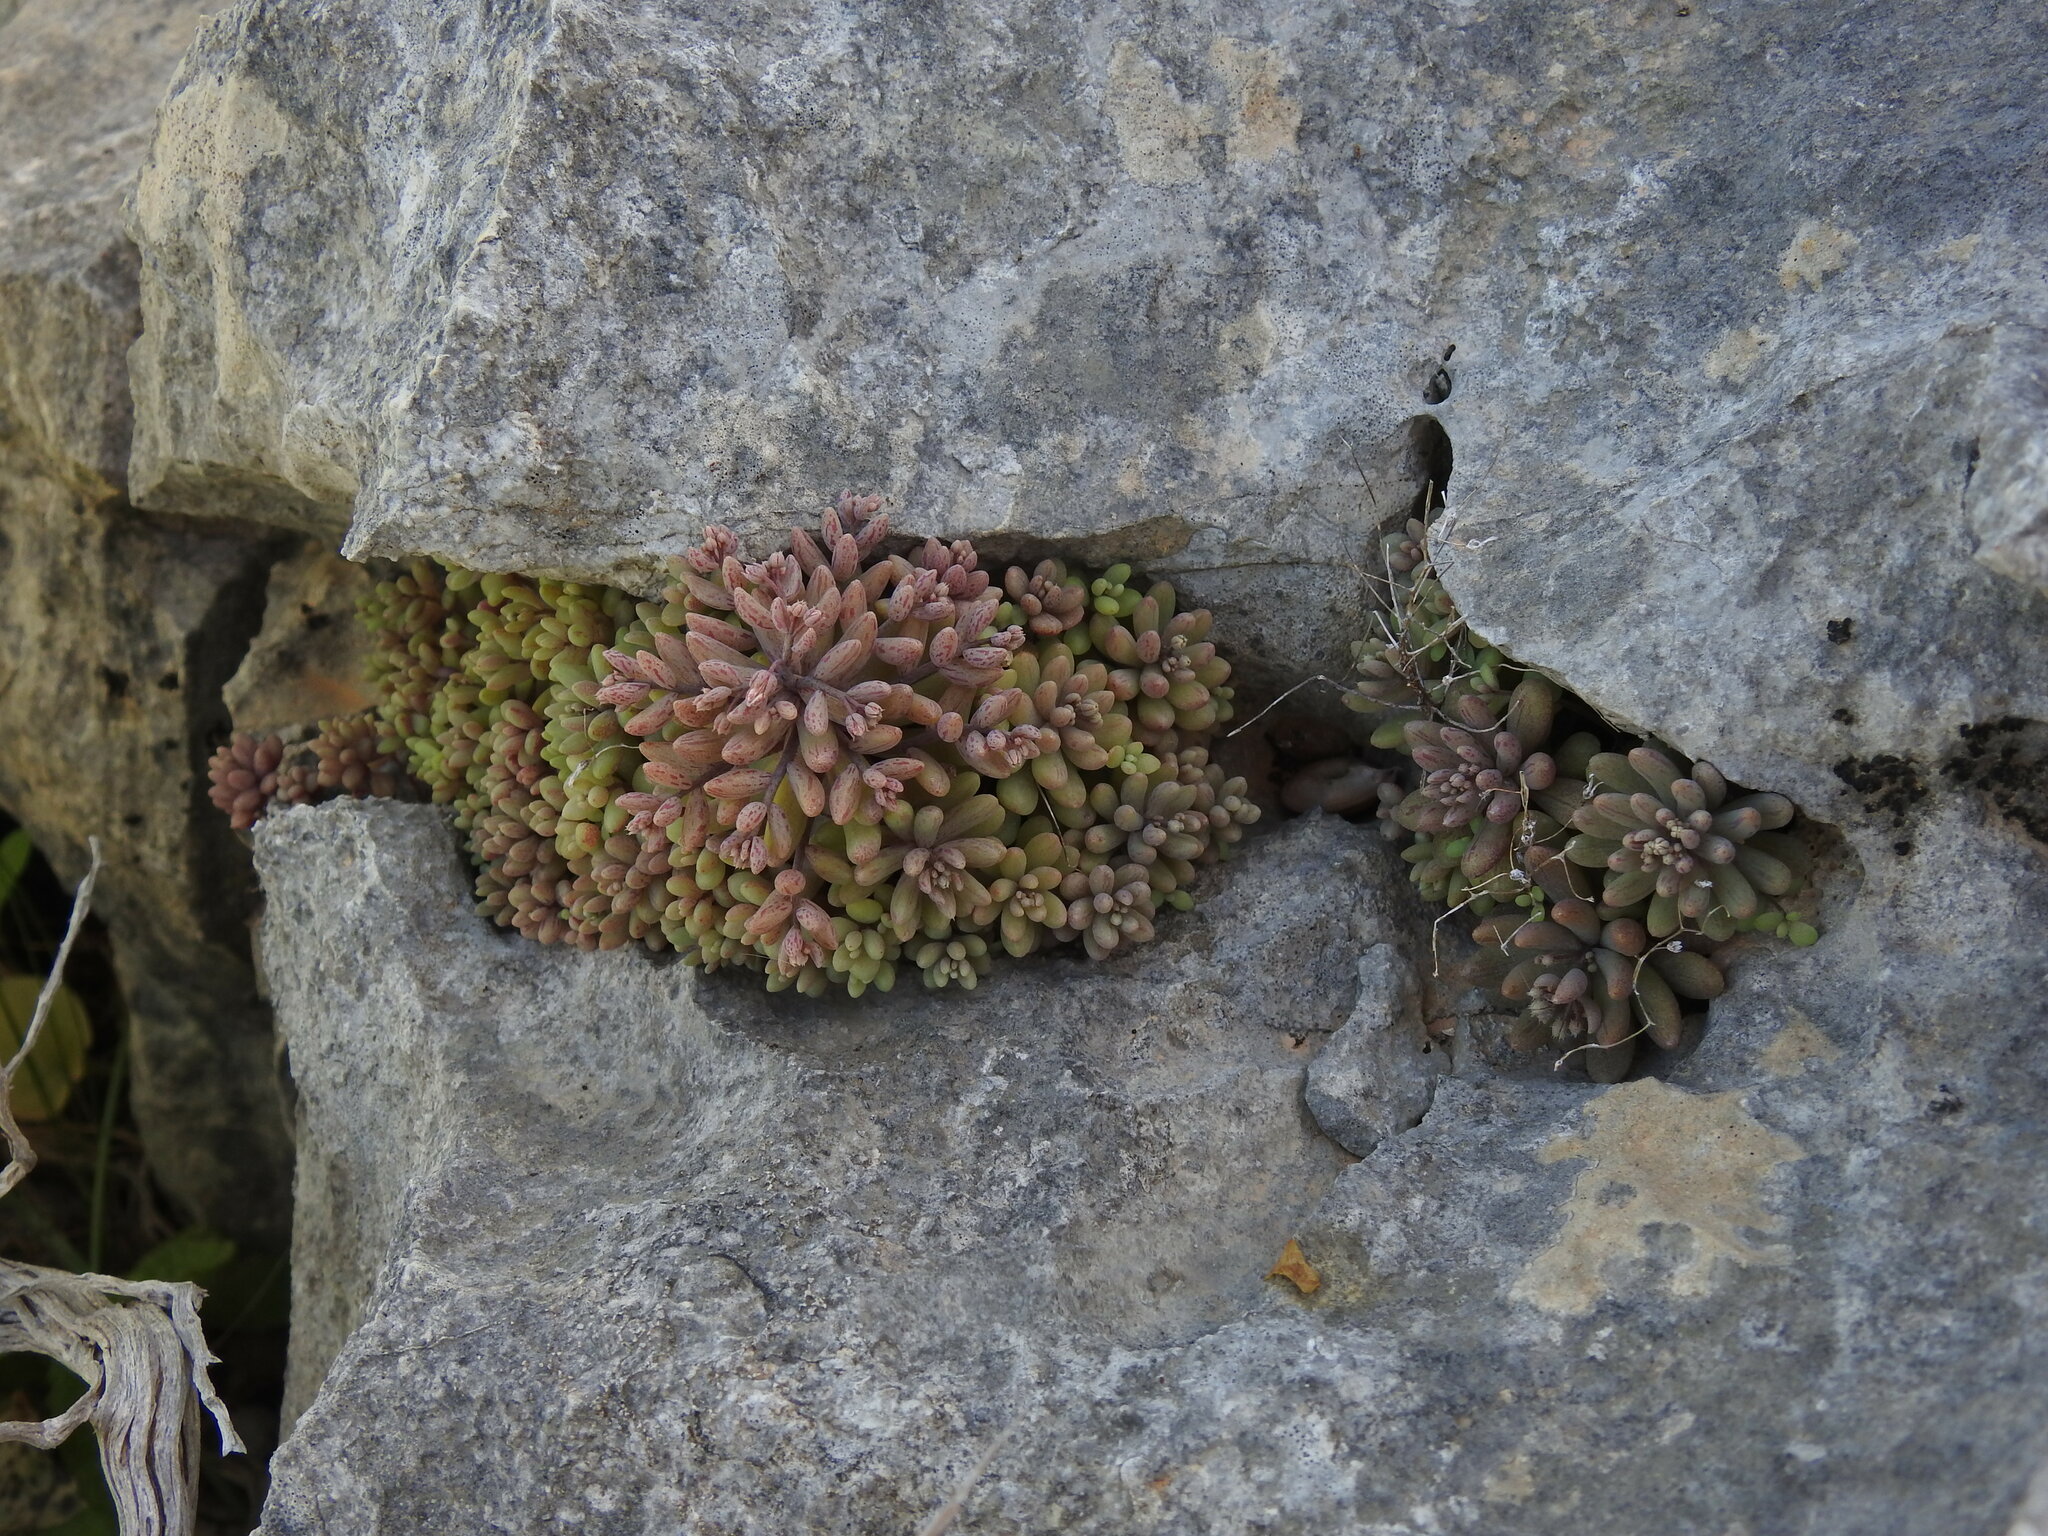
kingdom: Plantae
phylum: Tracheophyta
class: Magnoliopsida
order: Saxifragales
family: Crassulaceae
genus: Sedum
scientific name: Sedum mucizonia
